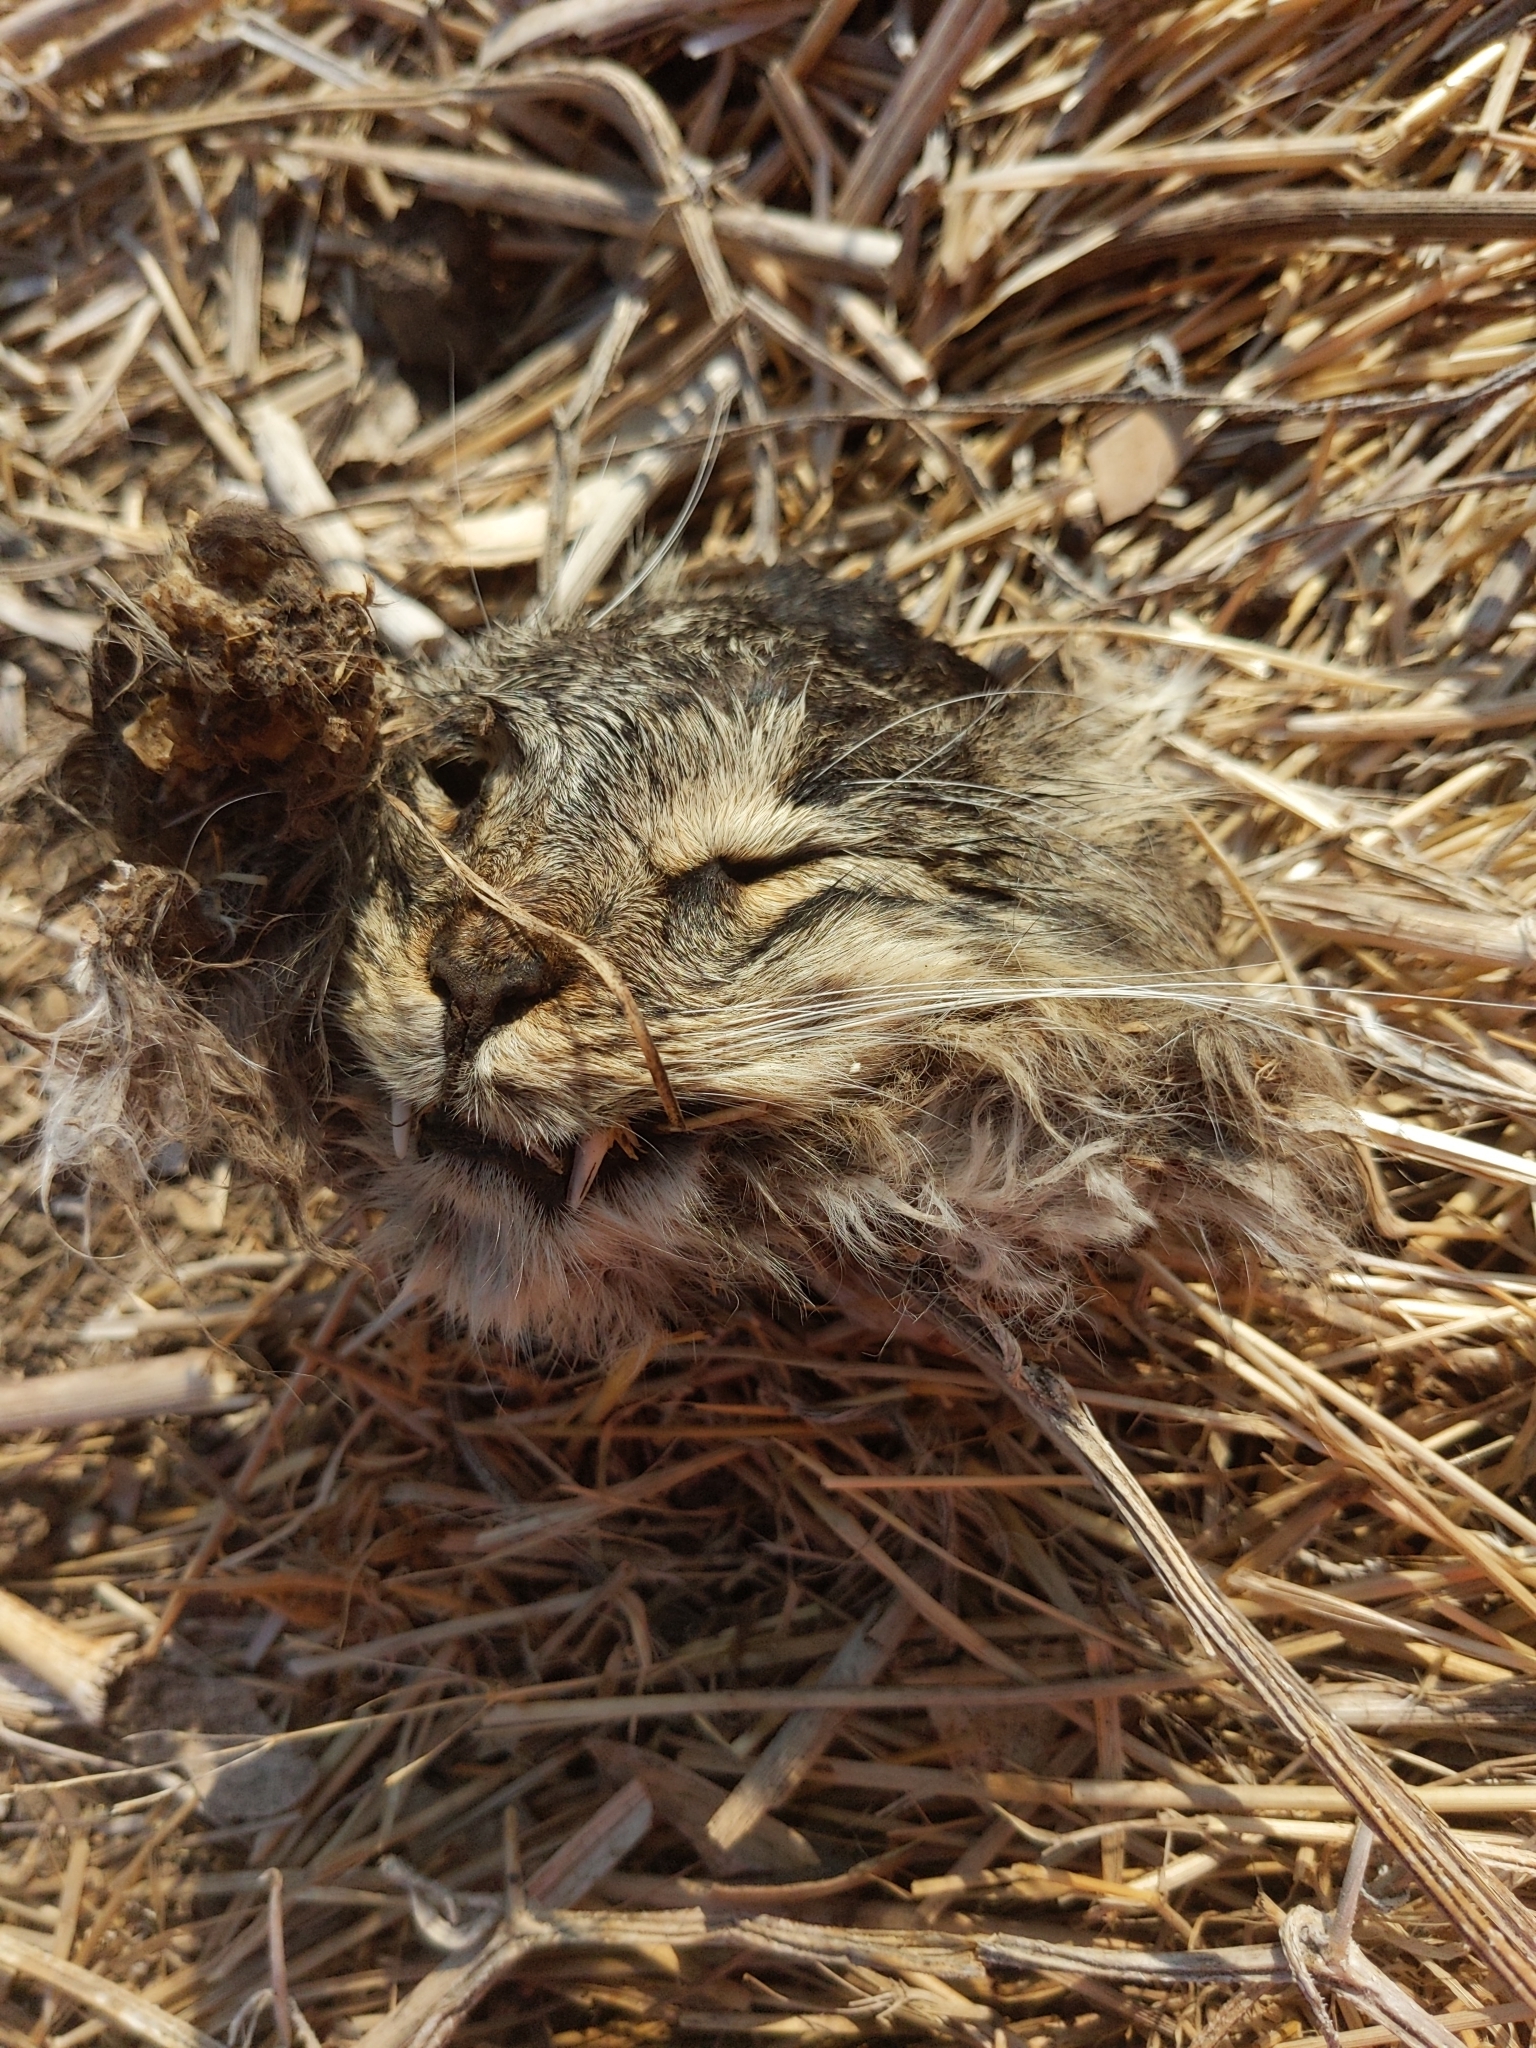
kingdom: Animalia
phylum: Chordata
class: Mammalia
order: Carnivora
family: Felidae
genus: Lynx
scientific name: Lynx rufus
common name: Bobcat
